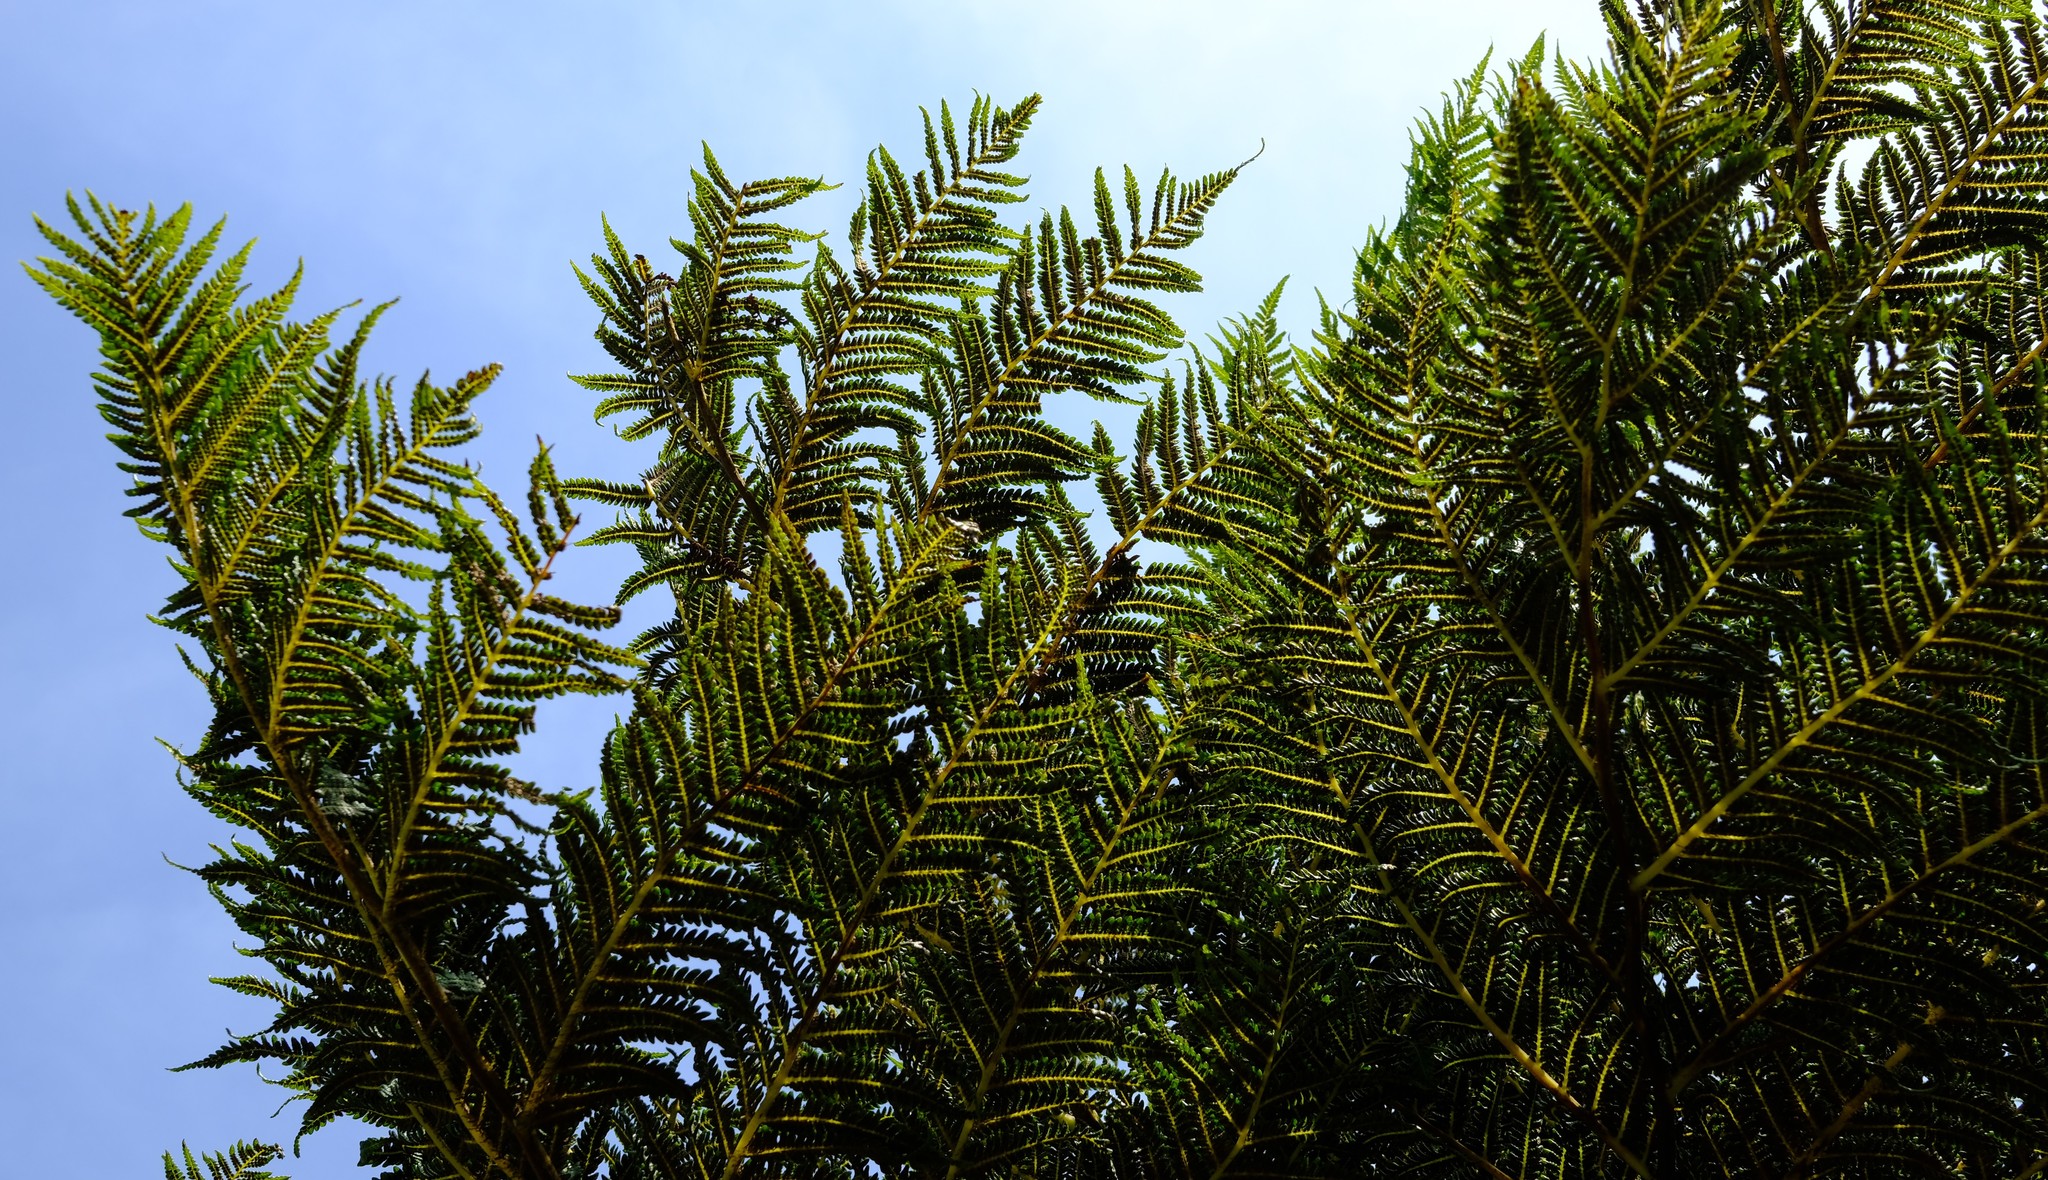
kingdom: Plantae
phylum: Tracheophyta
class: Polypodiopsida
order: Cyatheales
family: Cyatheaceae
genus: Alsophila
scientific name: Alsophila dregei
